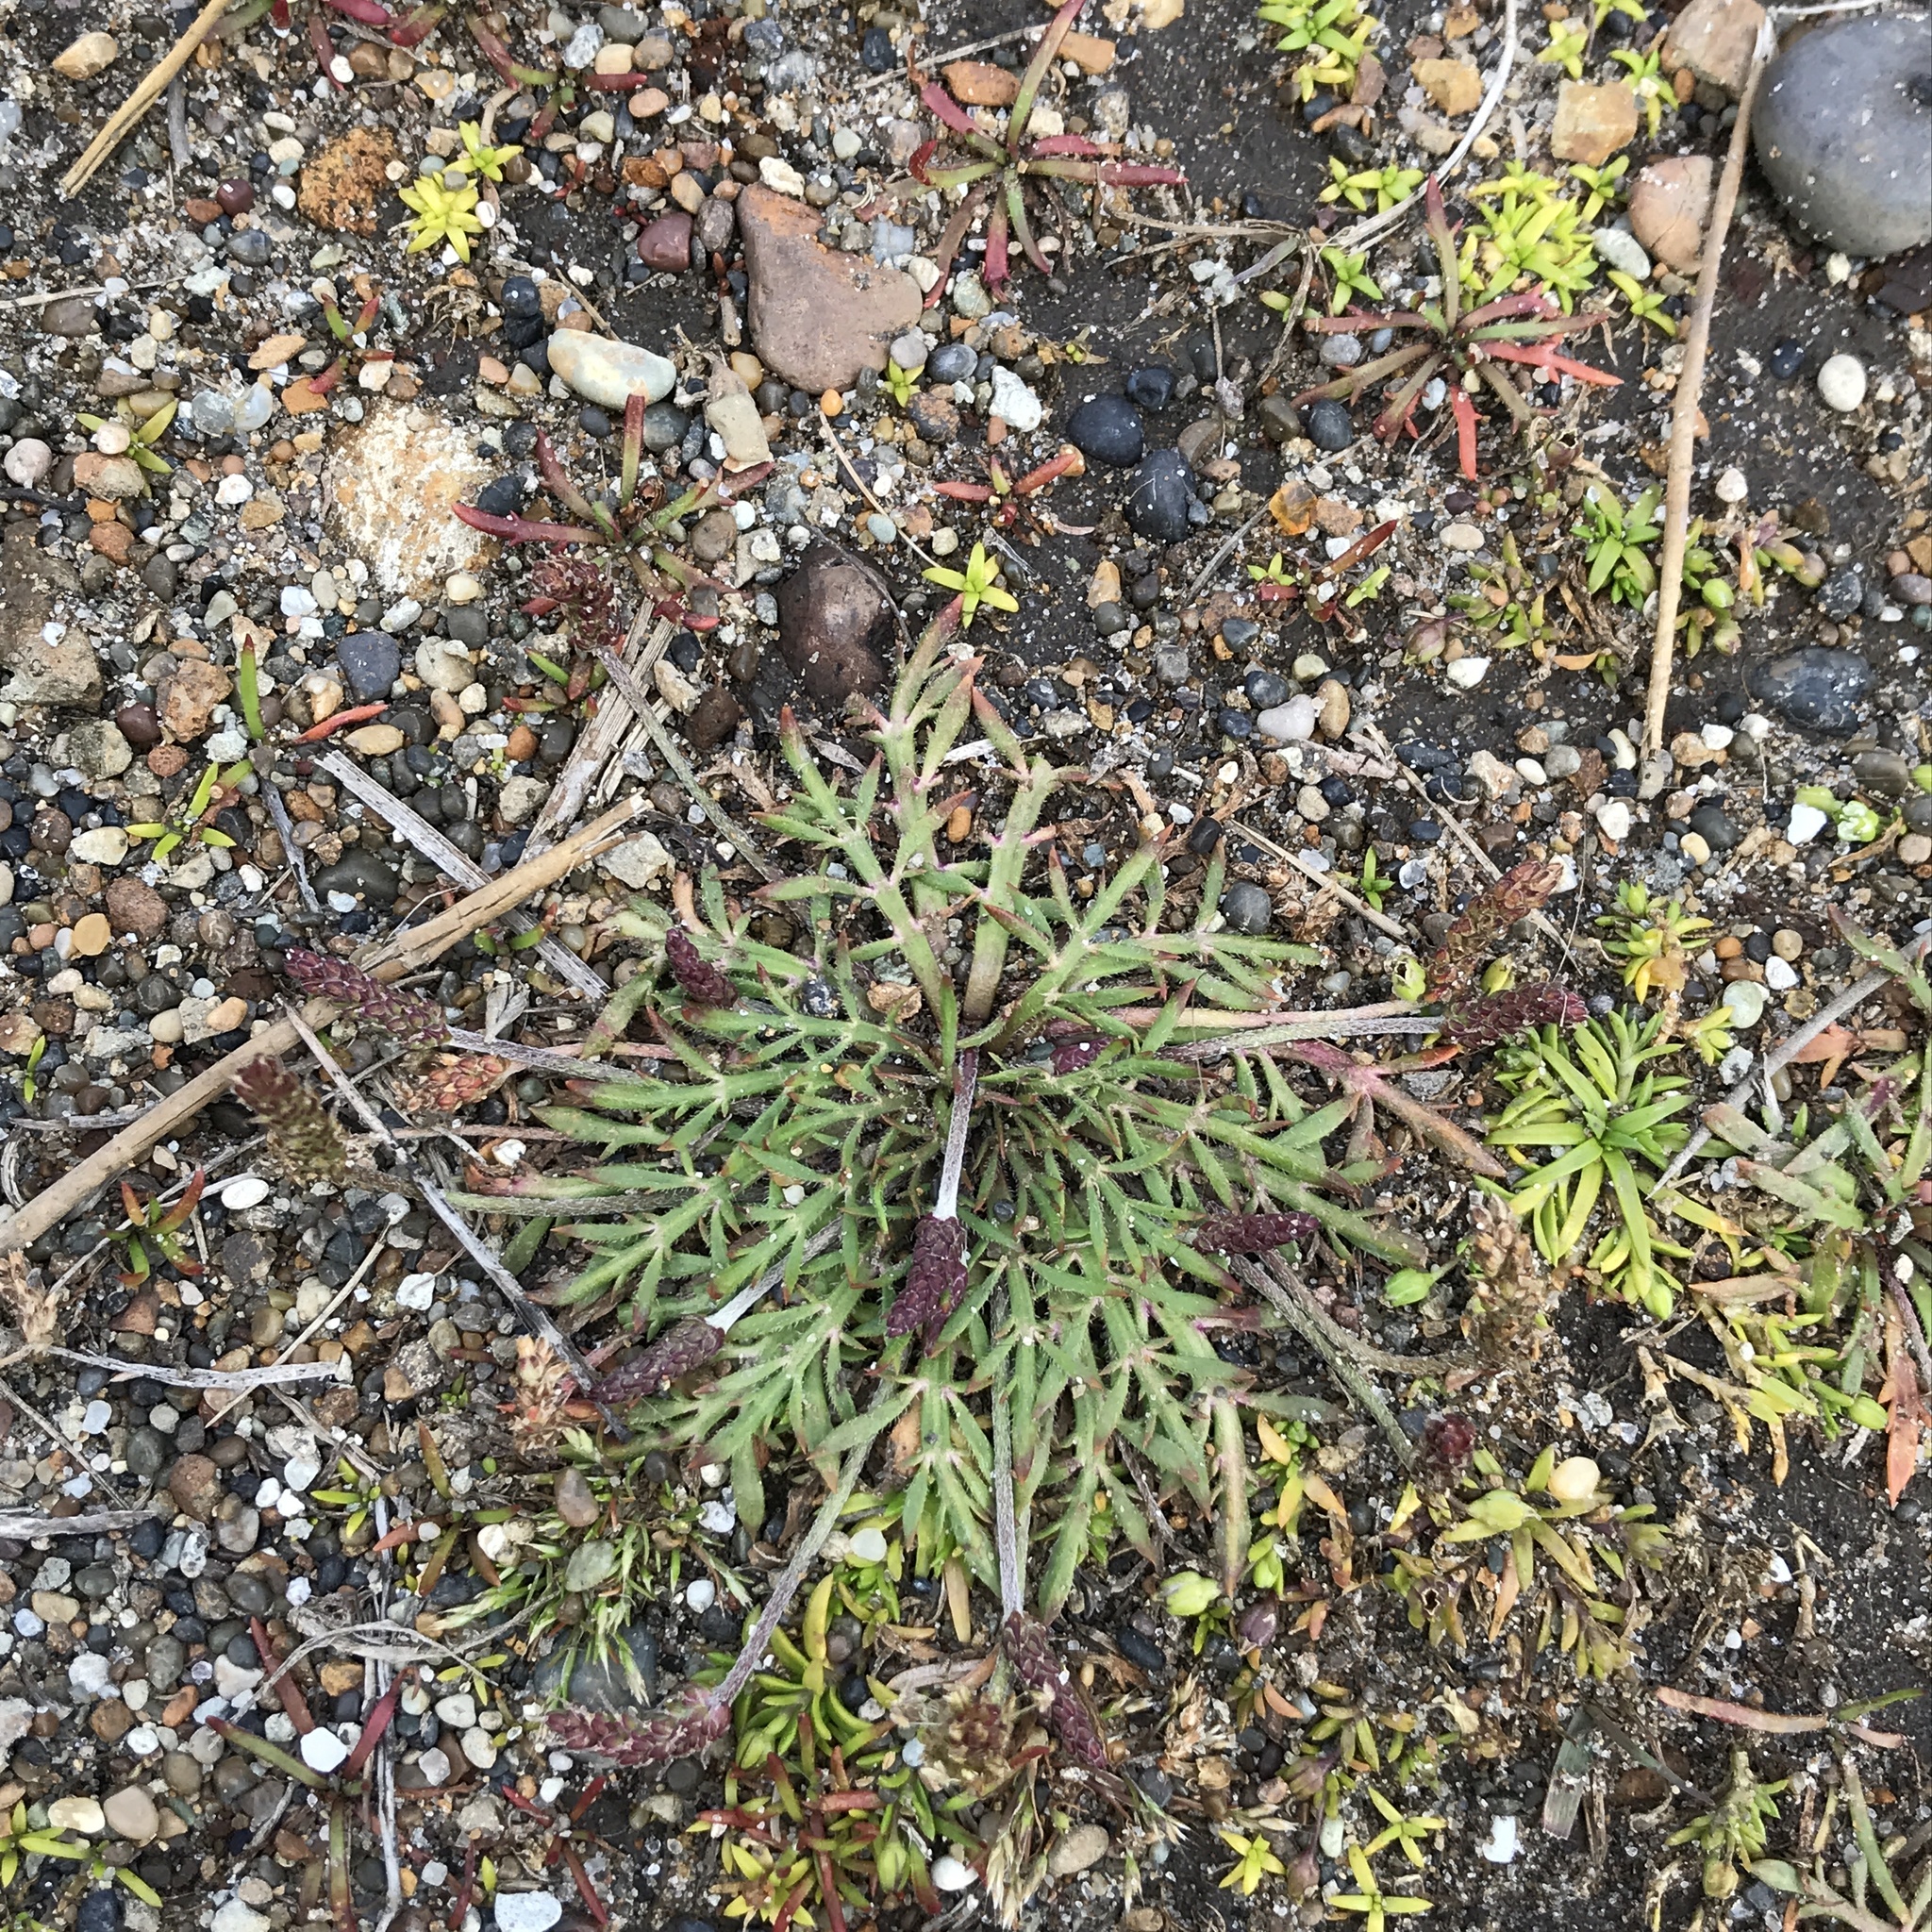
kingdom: Plantae
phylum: Tracheophyta
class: Magnoliopsida
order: Lamiales
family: Plantaginaceae
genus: Plantago
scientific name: Plantago coronopus
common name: Buck's-horn plantain
